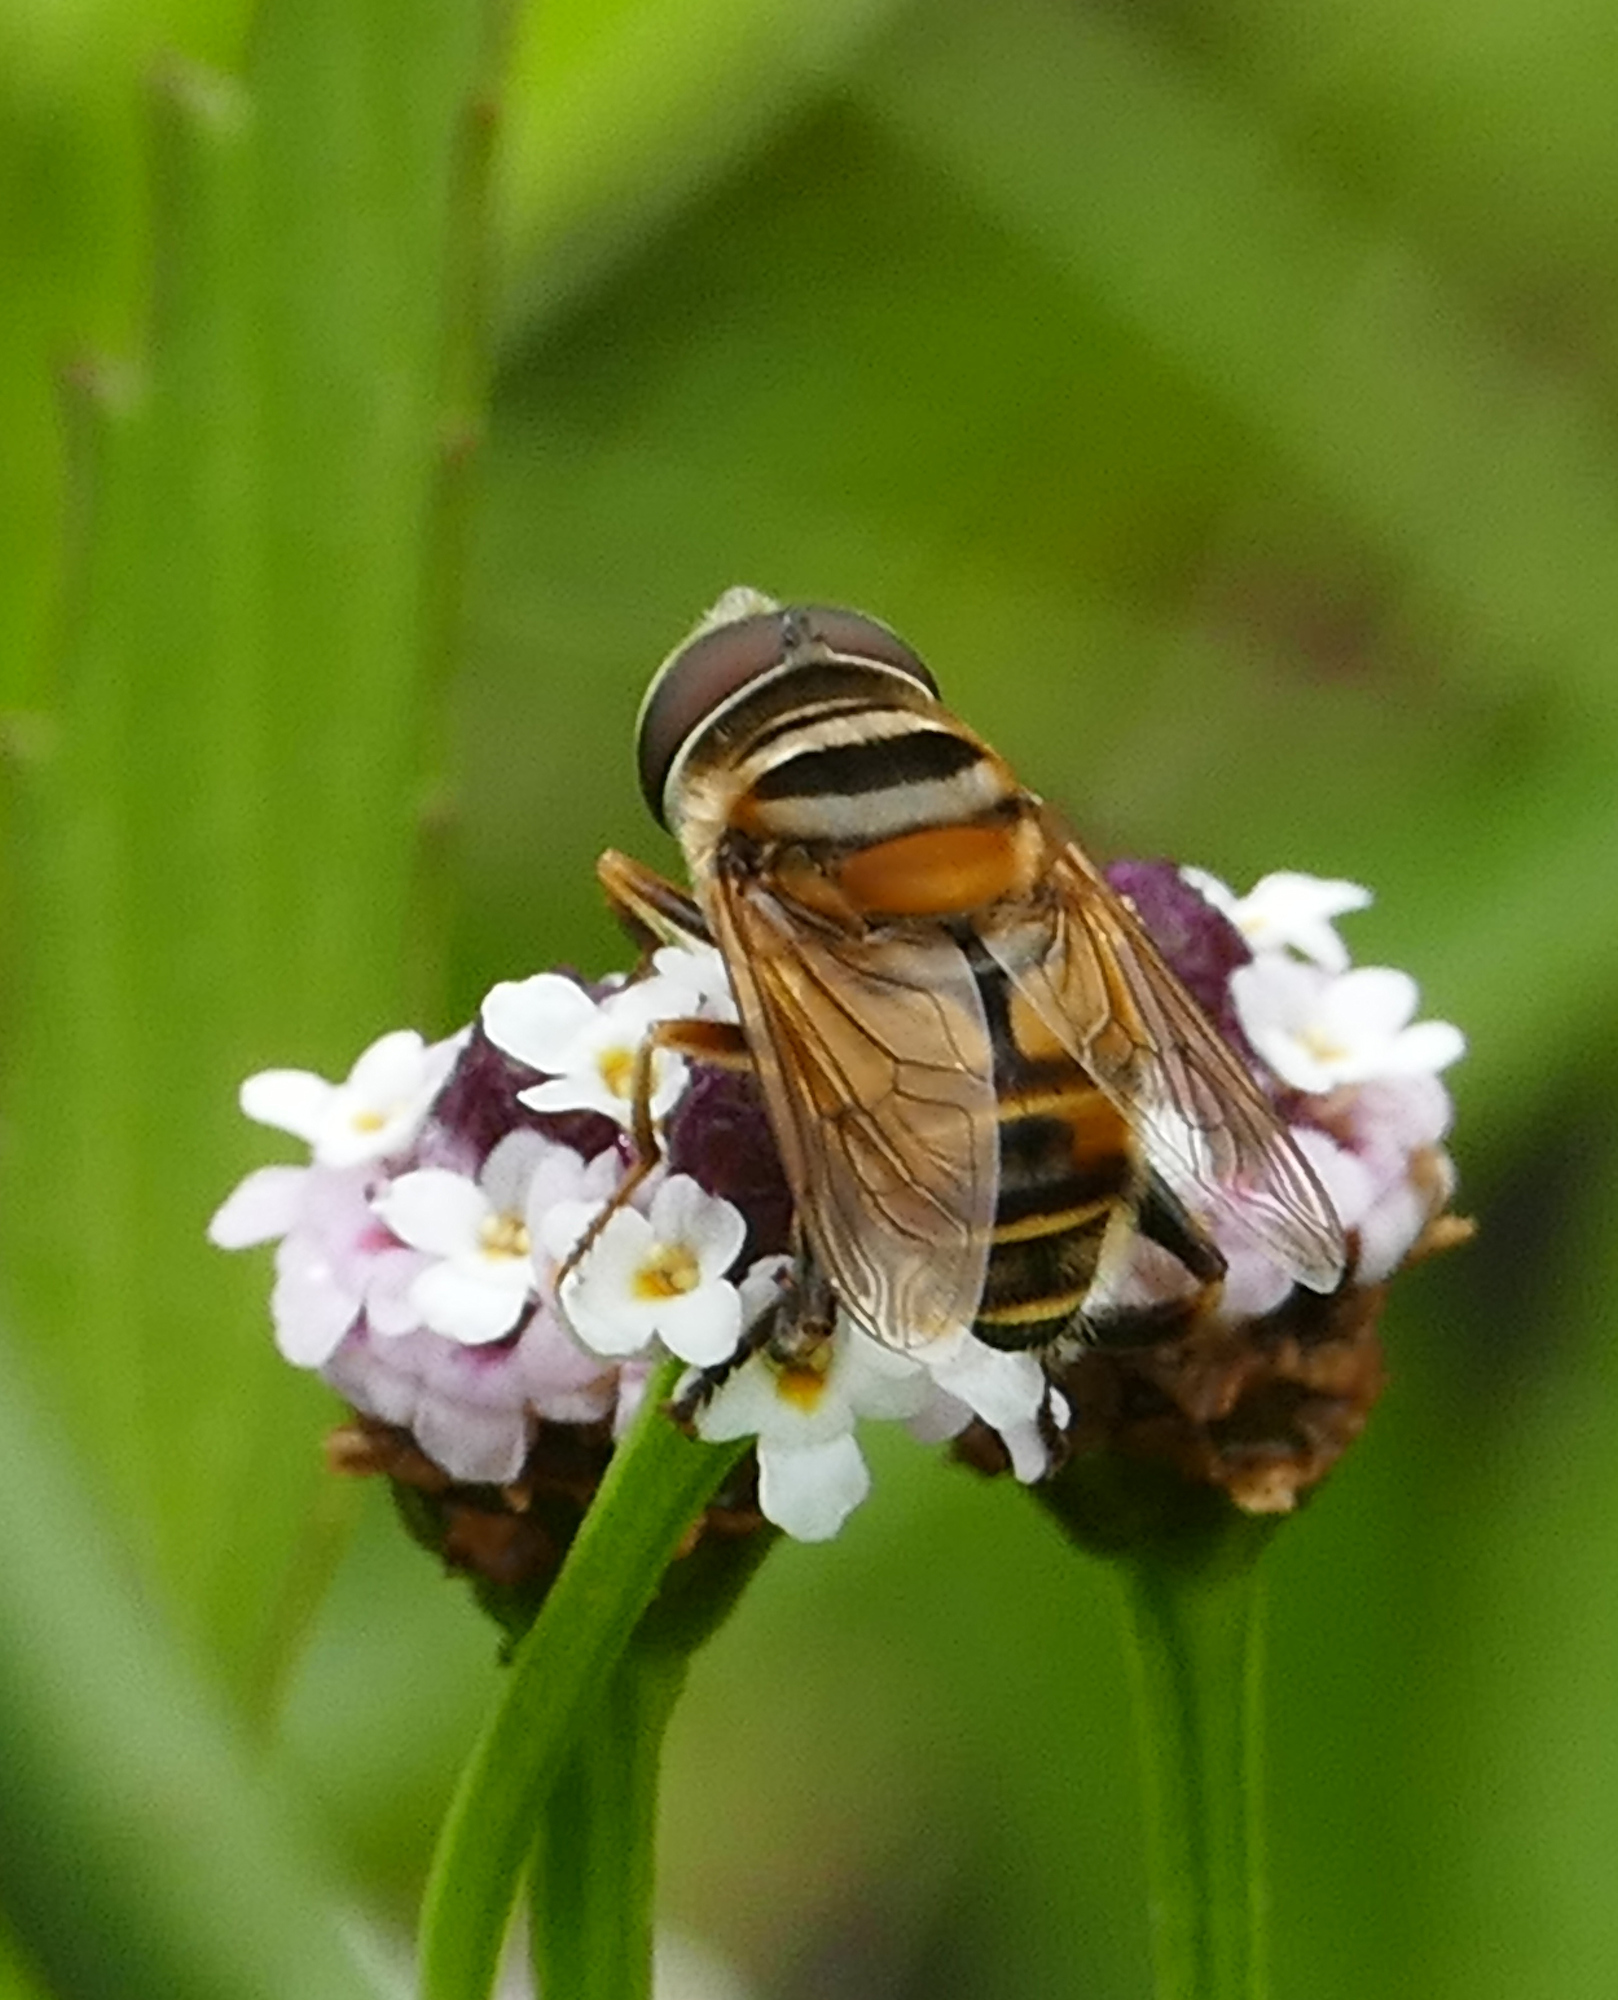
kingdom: Animalia
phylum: Arthropoda
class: Insecta
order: Diptera
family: Syrphidae
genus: Palpada
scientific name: Palpada vinetorum
